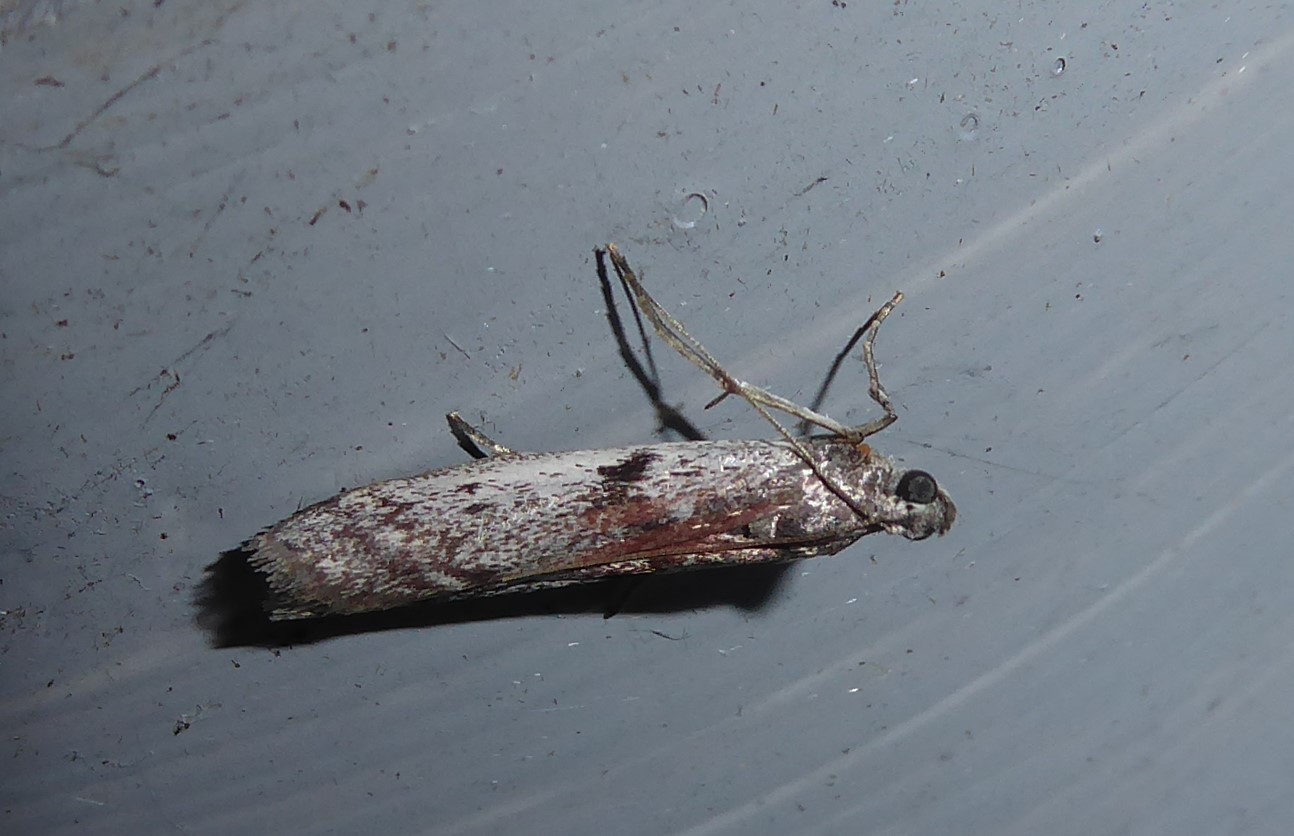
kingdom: Animalia
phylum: Arthropoda
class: Insecta
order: Lepidoptera
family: Pyralidae
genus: Patagoniodes
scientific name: Patagoniodes farinaria
